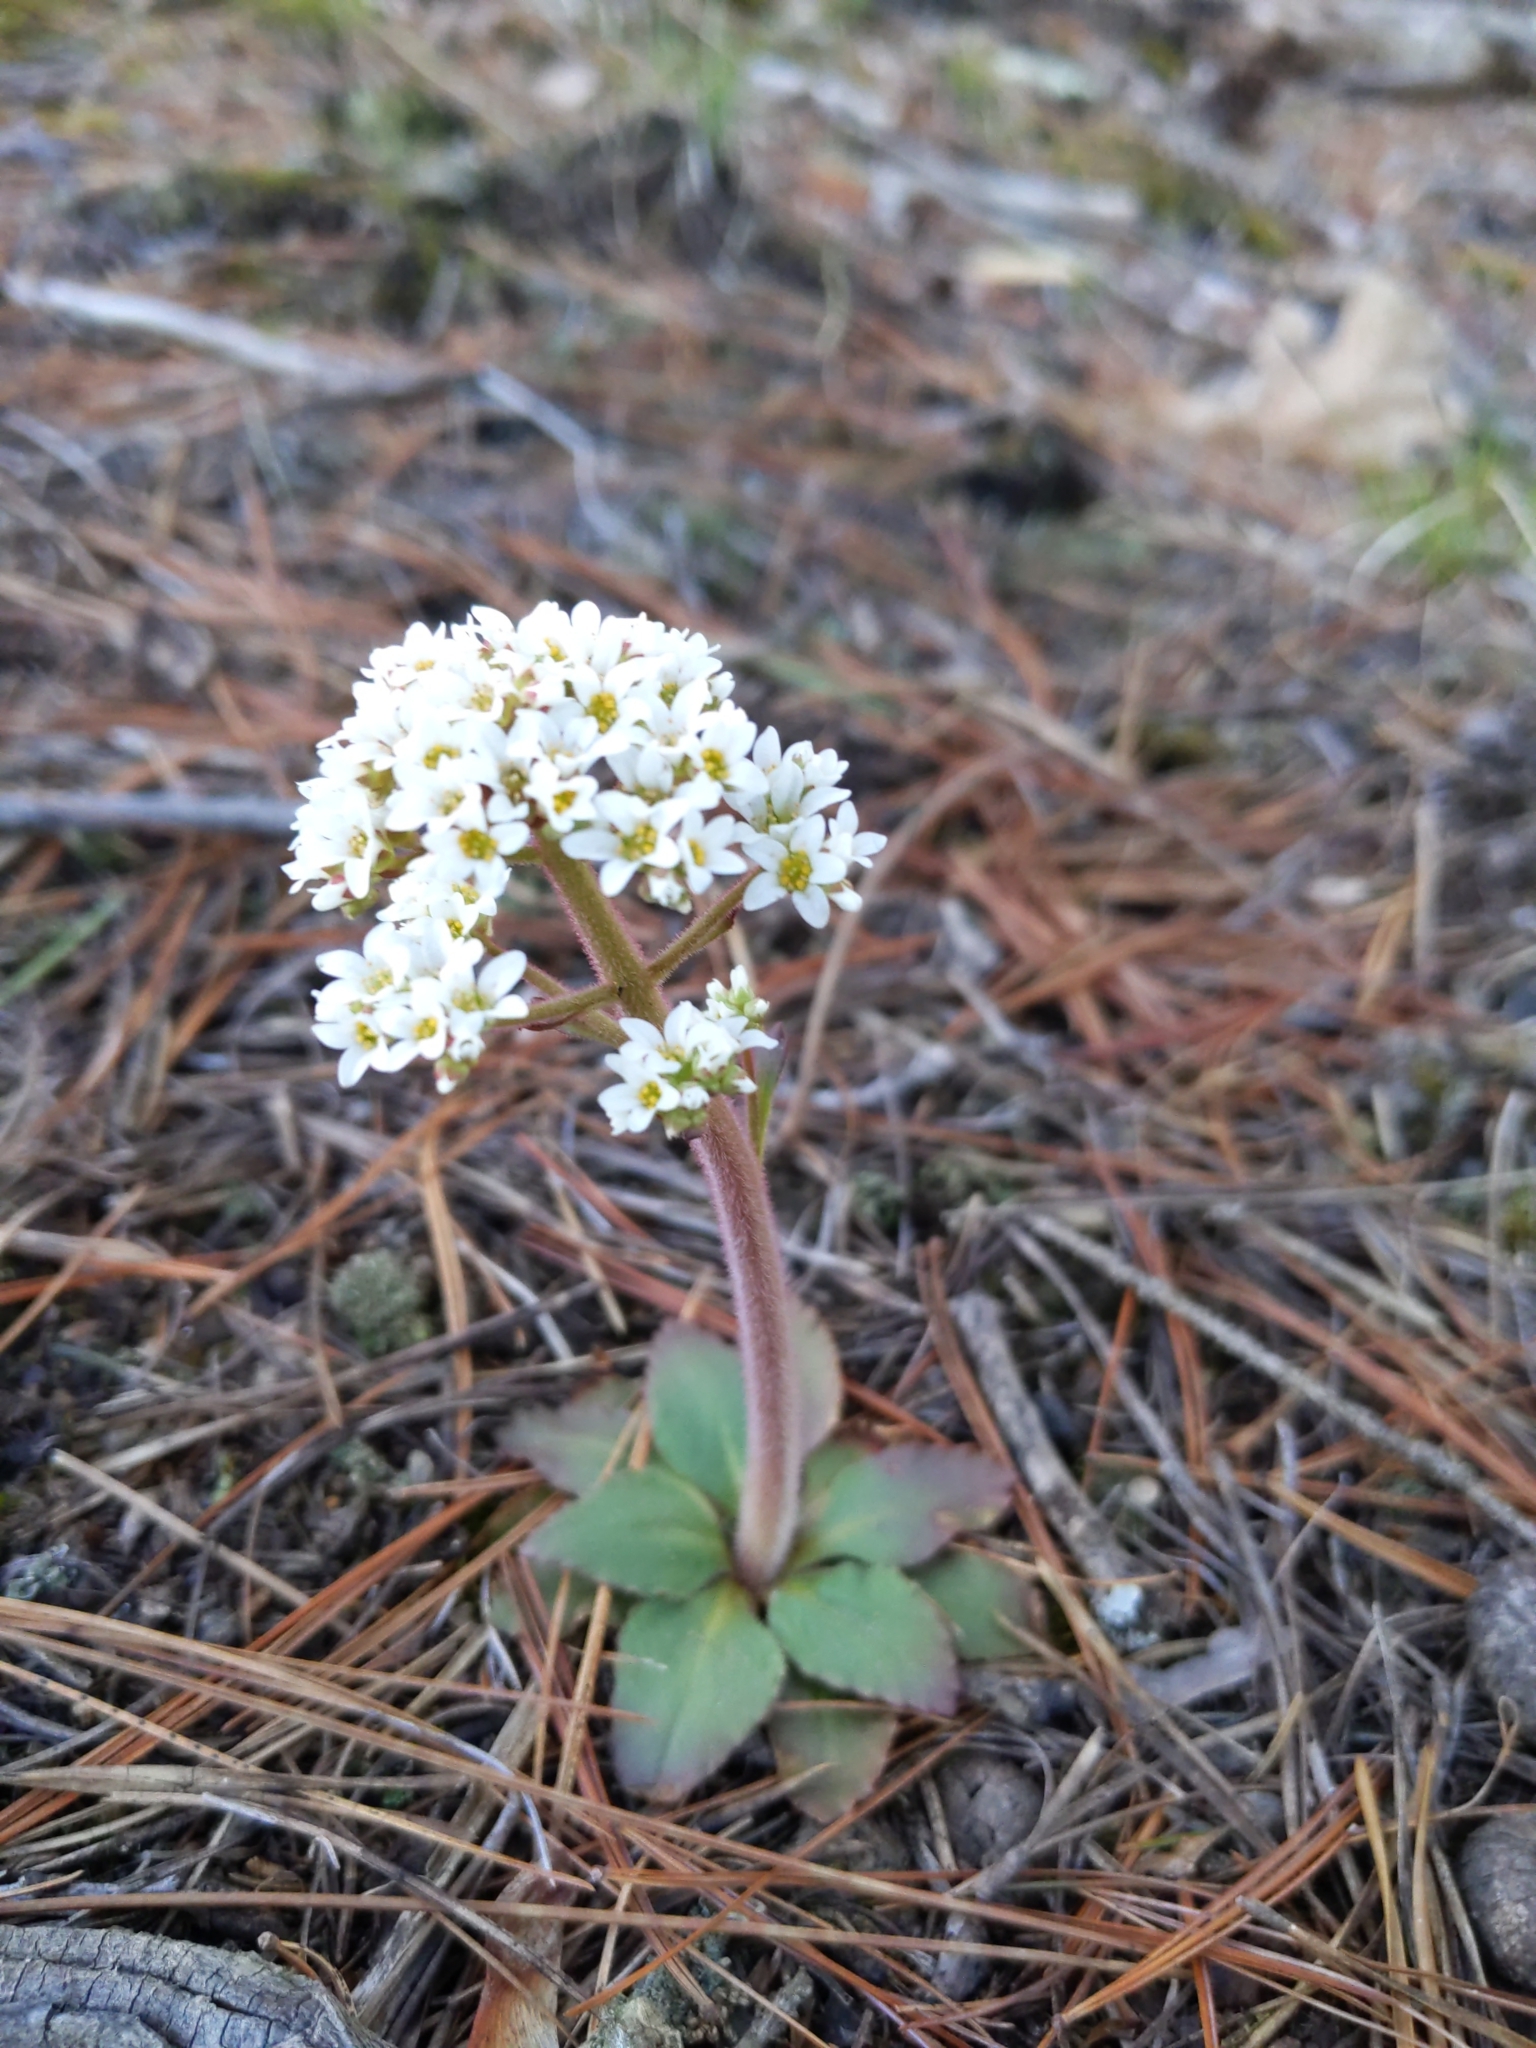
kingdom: Plantae
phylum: Tracheophyta
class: Magnoliopsida
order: Saxifragales
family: Saxifragaceae
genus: Micranthes
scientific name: Micranthes virginiensis
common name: Early saxifrage
